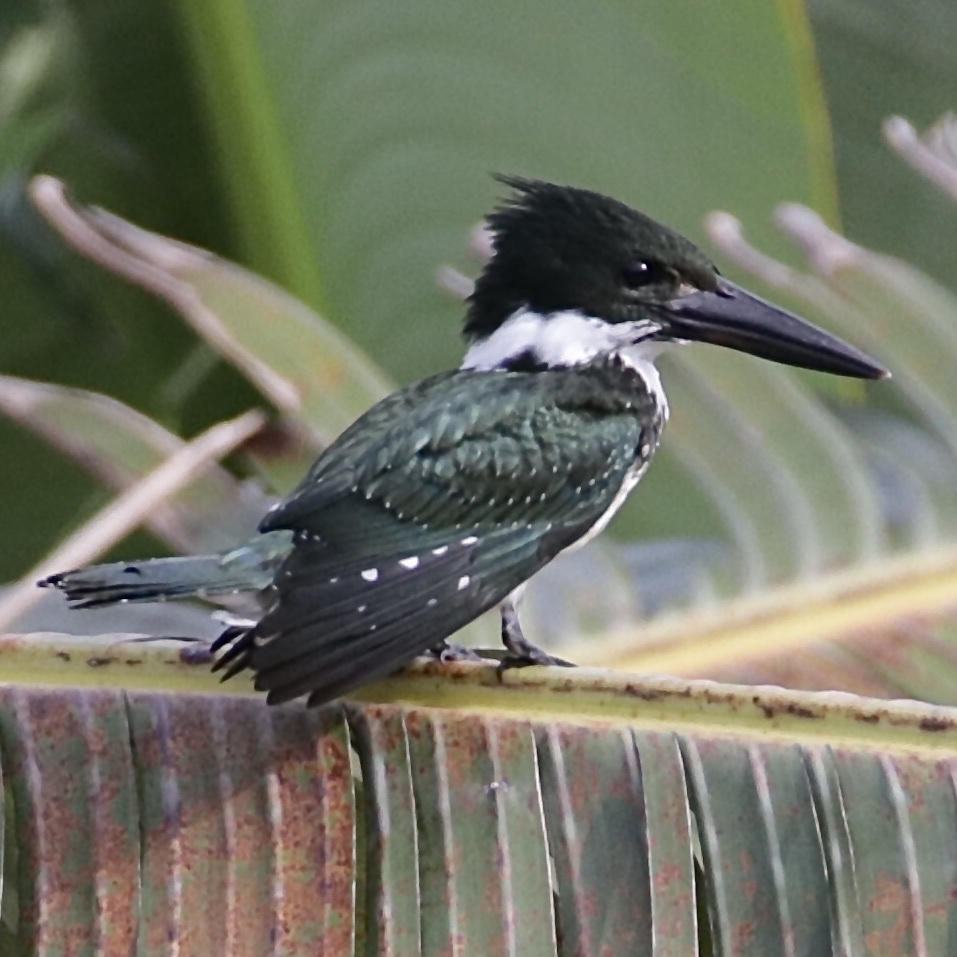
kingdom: Animalia
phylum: Chordata
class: Aves
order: Coraciiformes
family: Alcedinidae
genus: Chloroceryle
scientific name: Chloroceryle americana
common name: Green kingfisher
